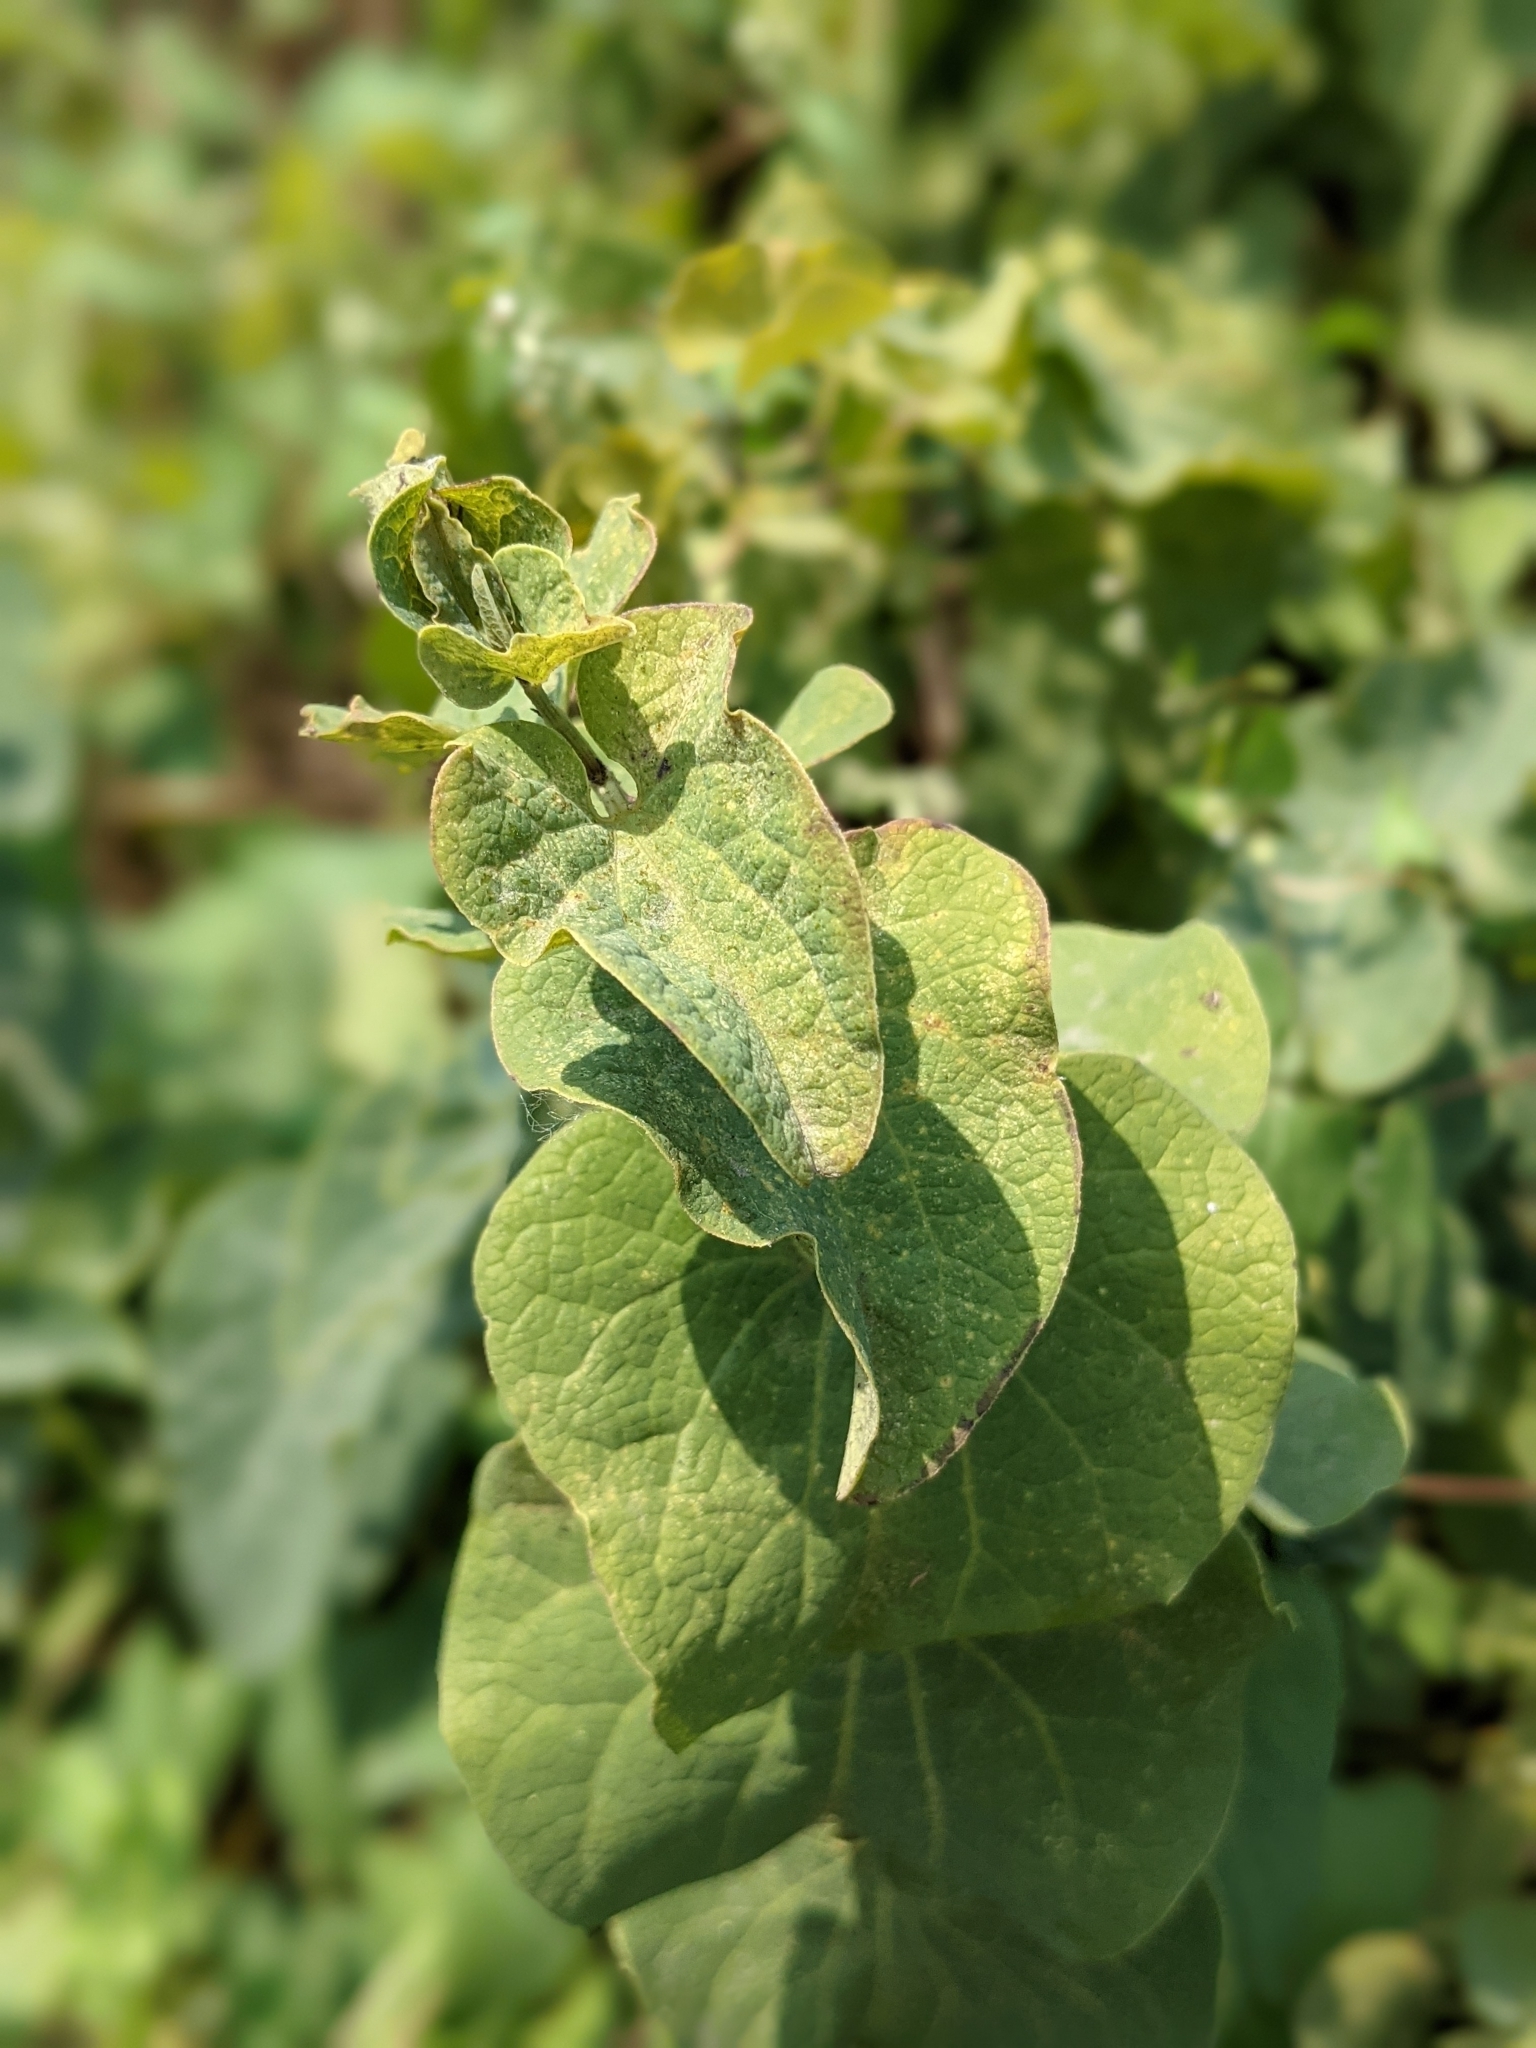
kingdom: Plantae
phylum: Tracheophyta
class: Magnoliopsida
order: Piperales
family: Aristolochiaceae
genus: Aristolochia
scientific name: Aristolochia clematitis
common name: Birthwort
